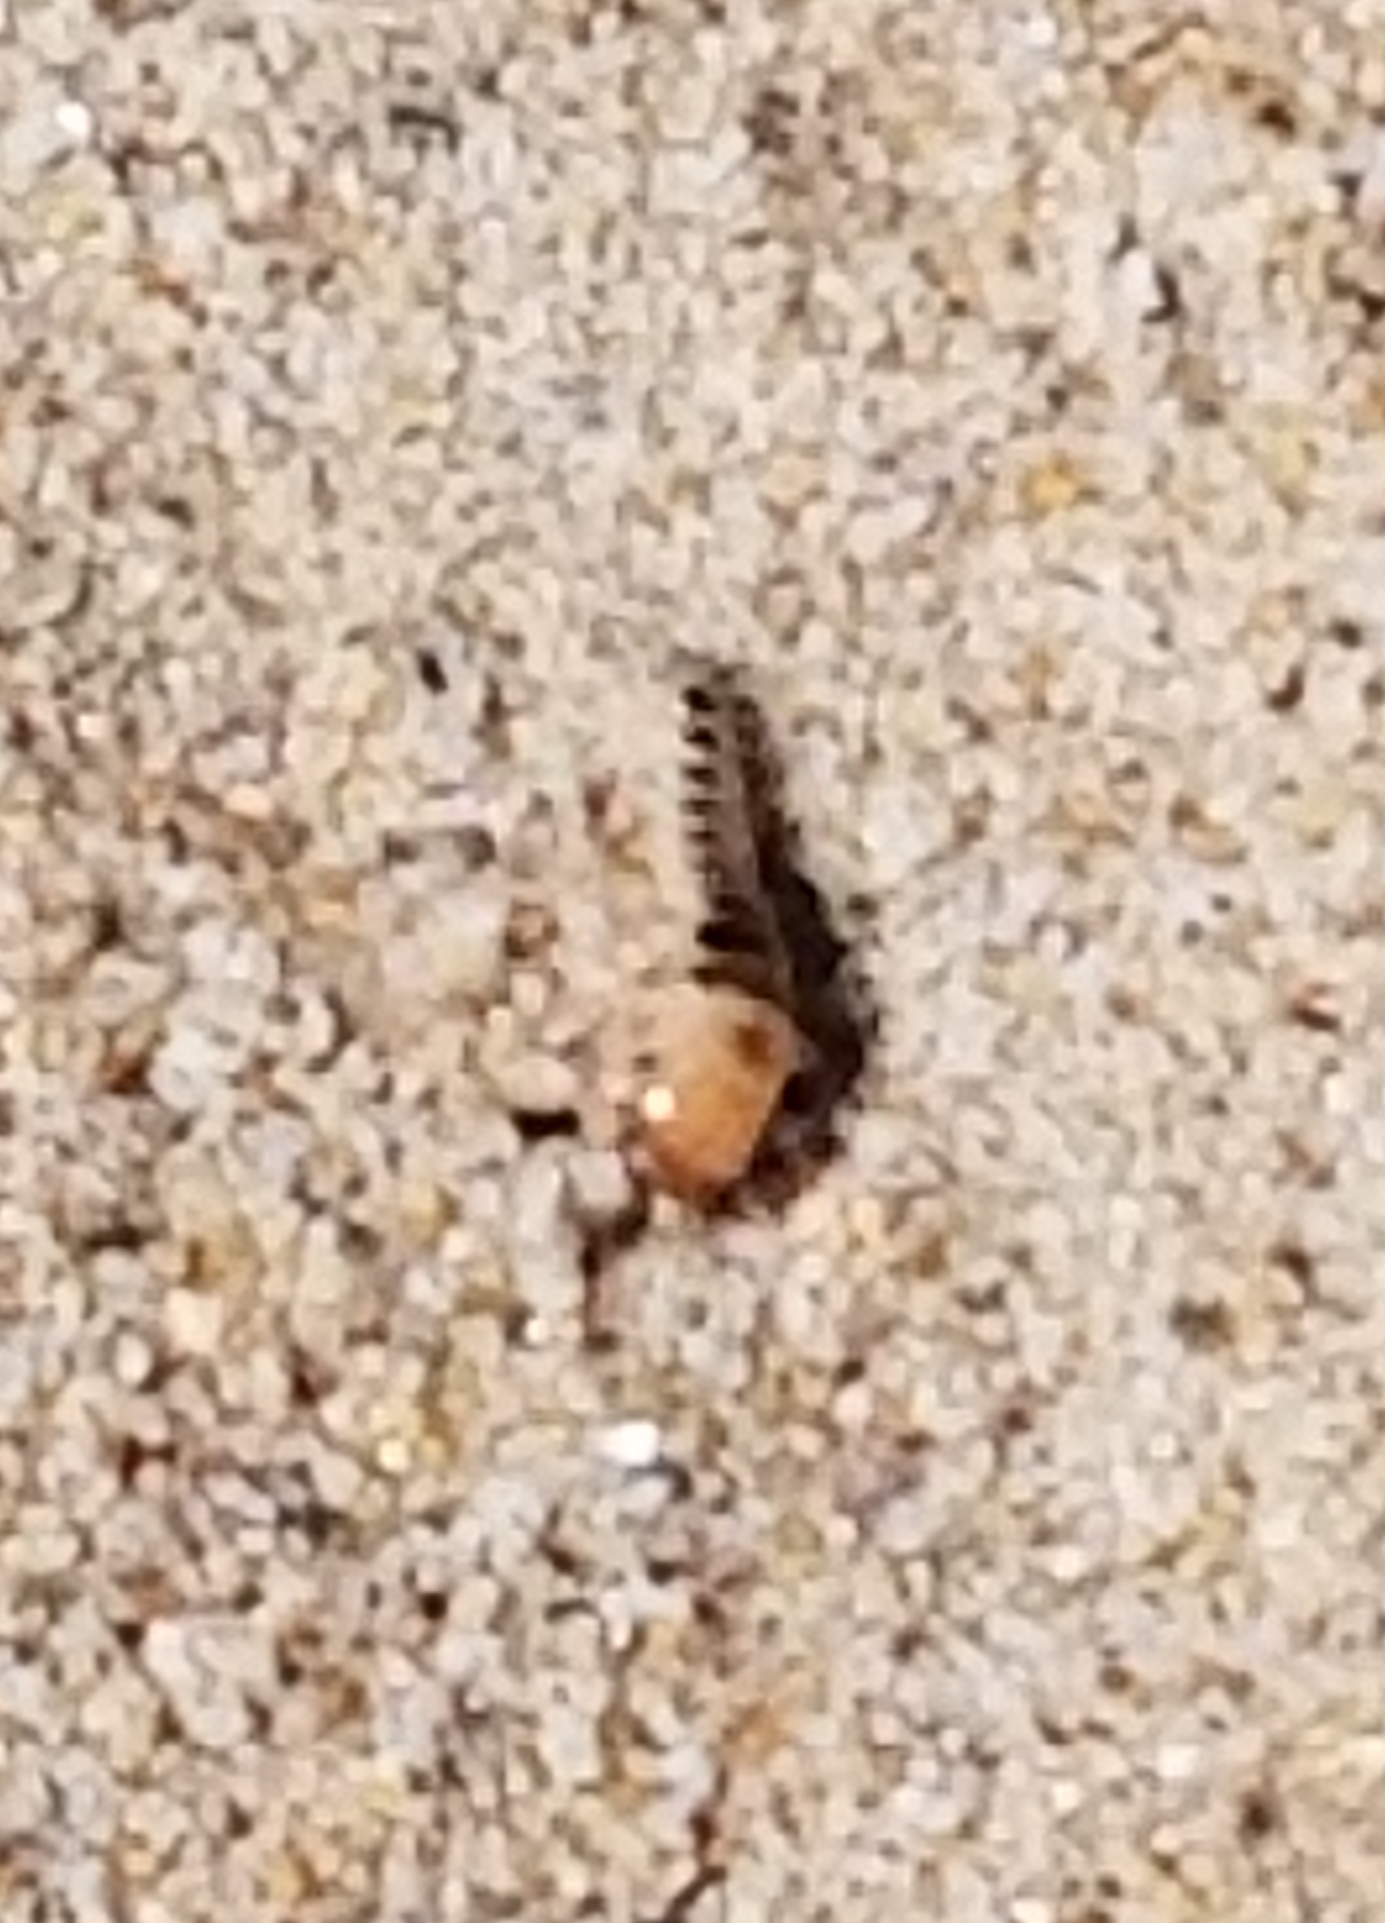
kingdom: Animalia
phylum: Arthropoda
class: Insecta
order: Coleoptera
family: Staphylinidae
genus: Thinopinus
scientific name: Thinopinus pictus
